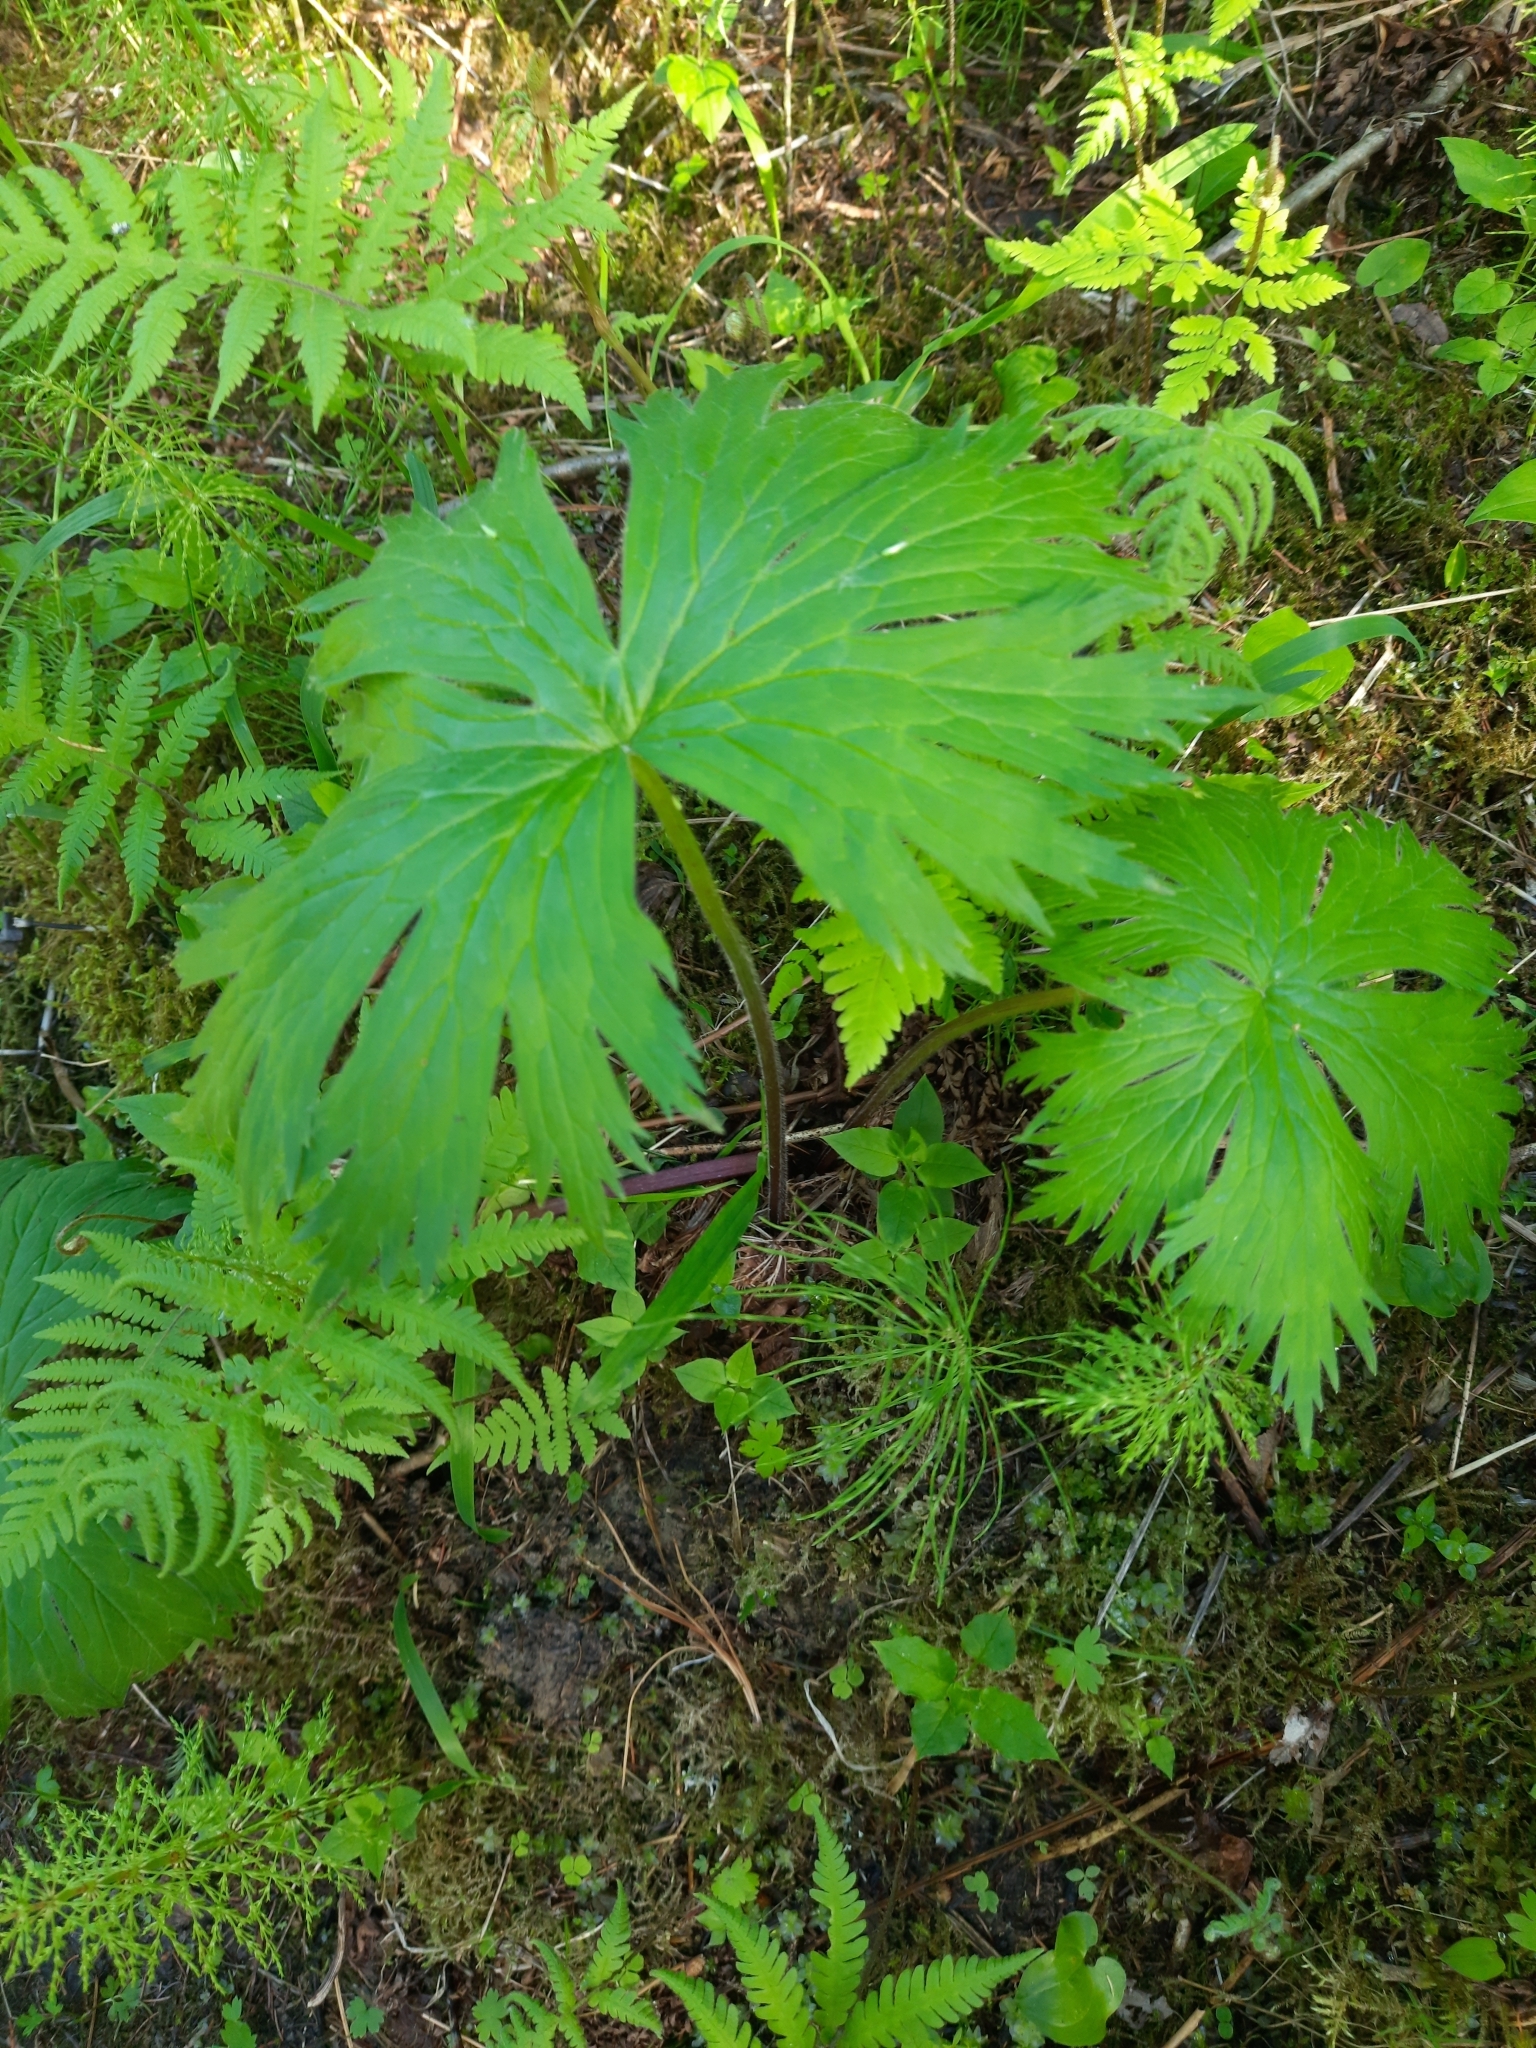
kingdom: Plantae
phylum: Tracheophyta
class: Magnoliopsida
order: Ranunculales
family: Ranunculaceae
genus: Aconitum
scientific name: Aconitum septentrionale
